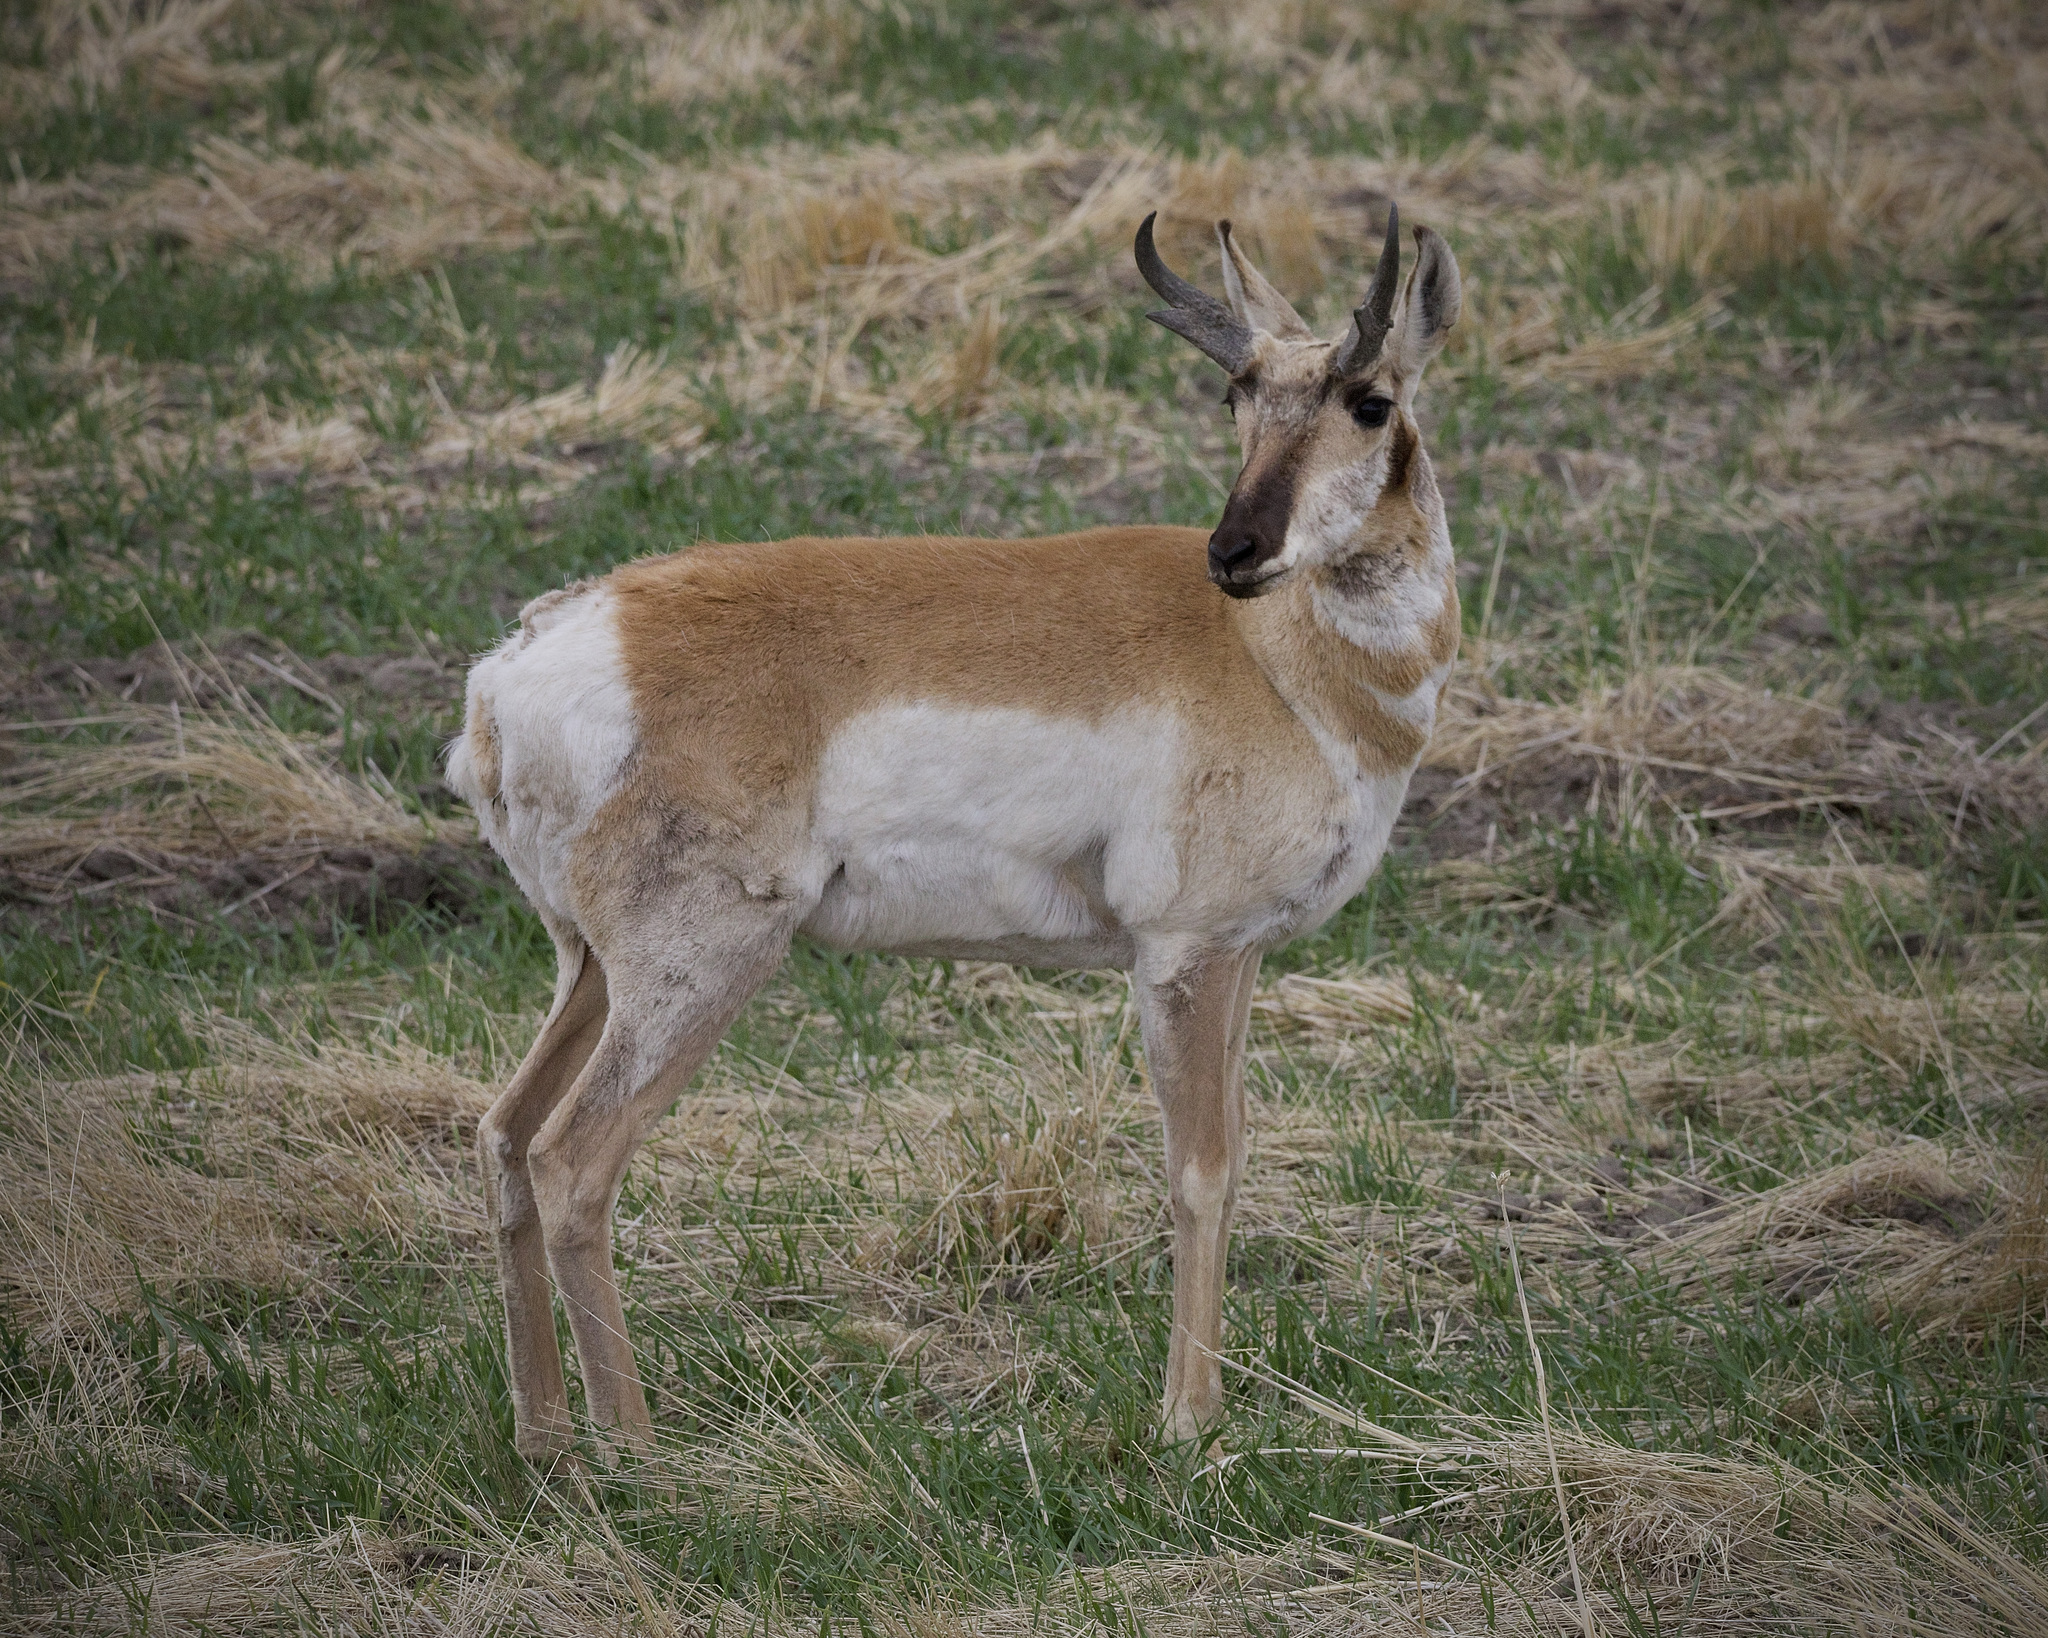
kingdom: Animalia
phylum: Chordata
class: Mammalia
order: Artiodactyla
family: Antilocapridae
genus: Antilocapra
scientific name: Antilocapra americana
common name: Pronghorn
